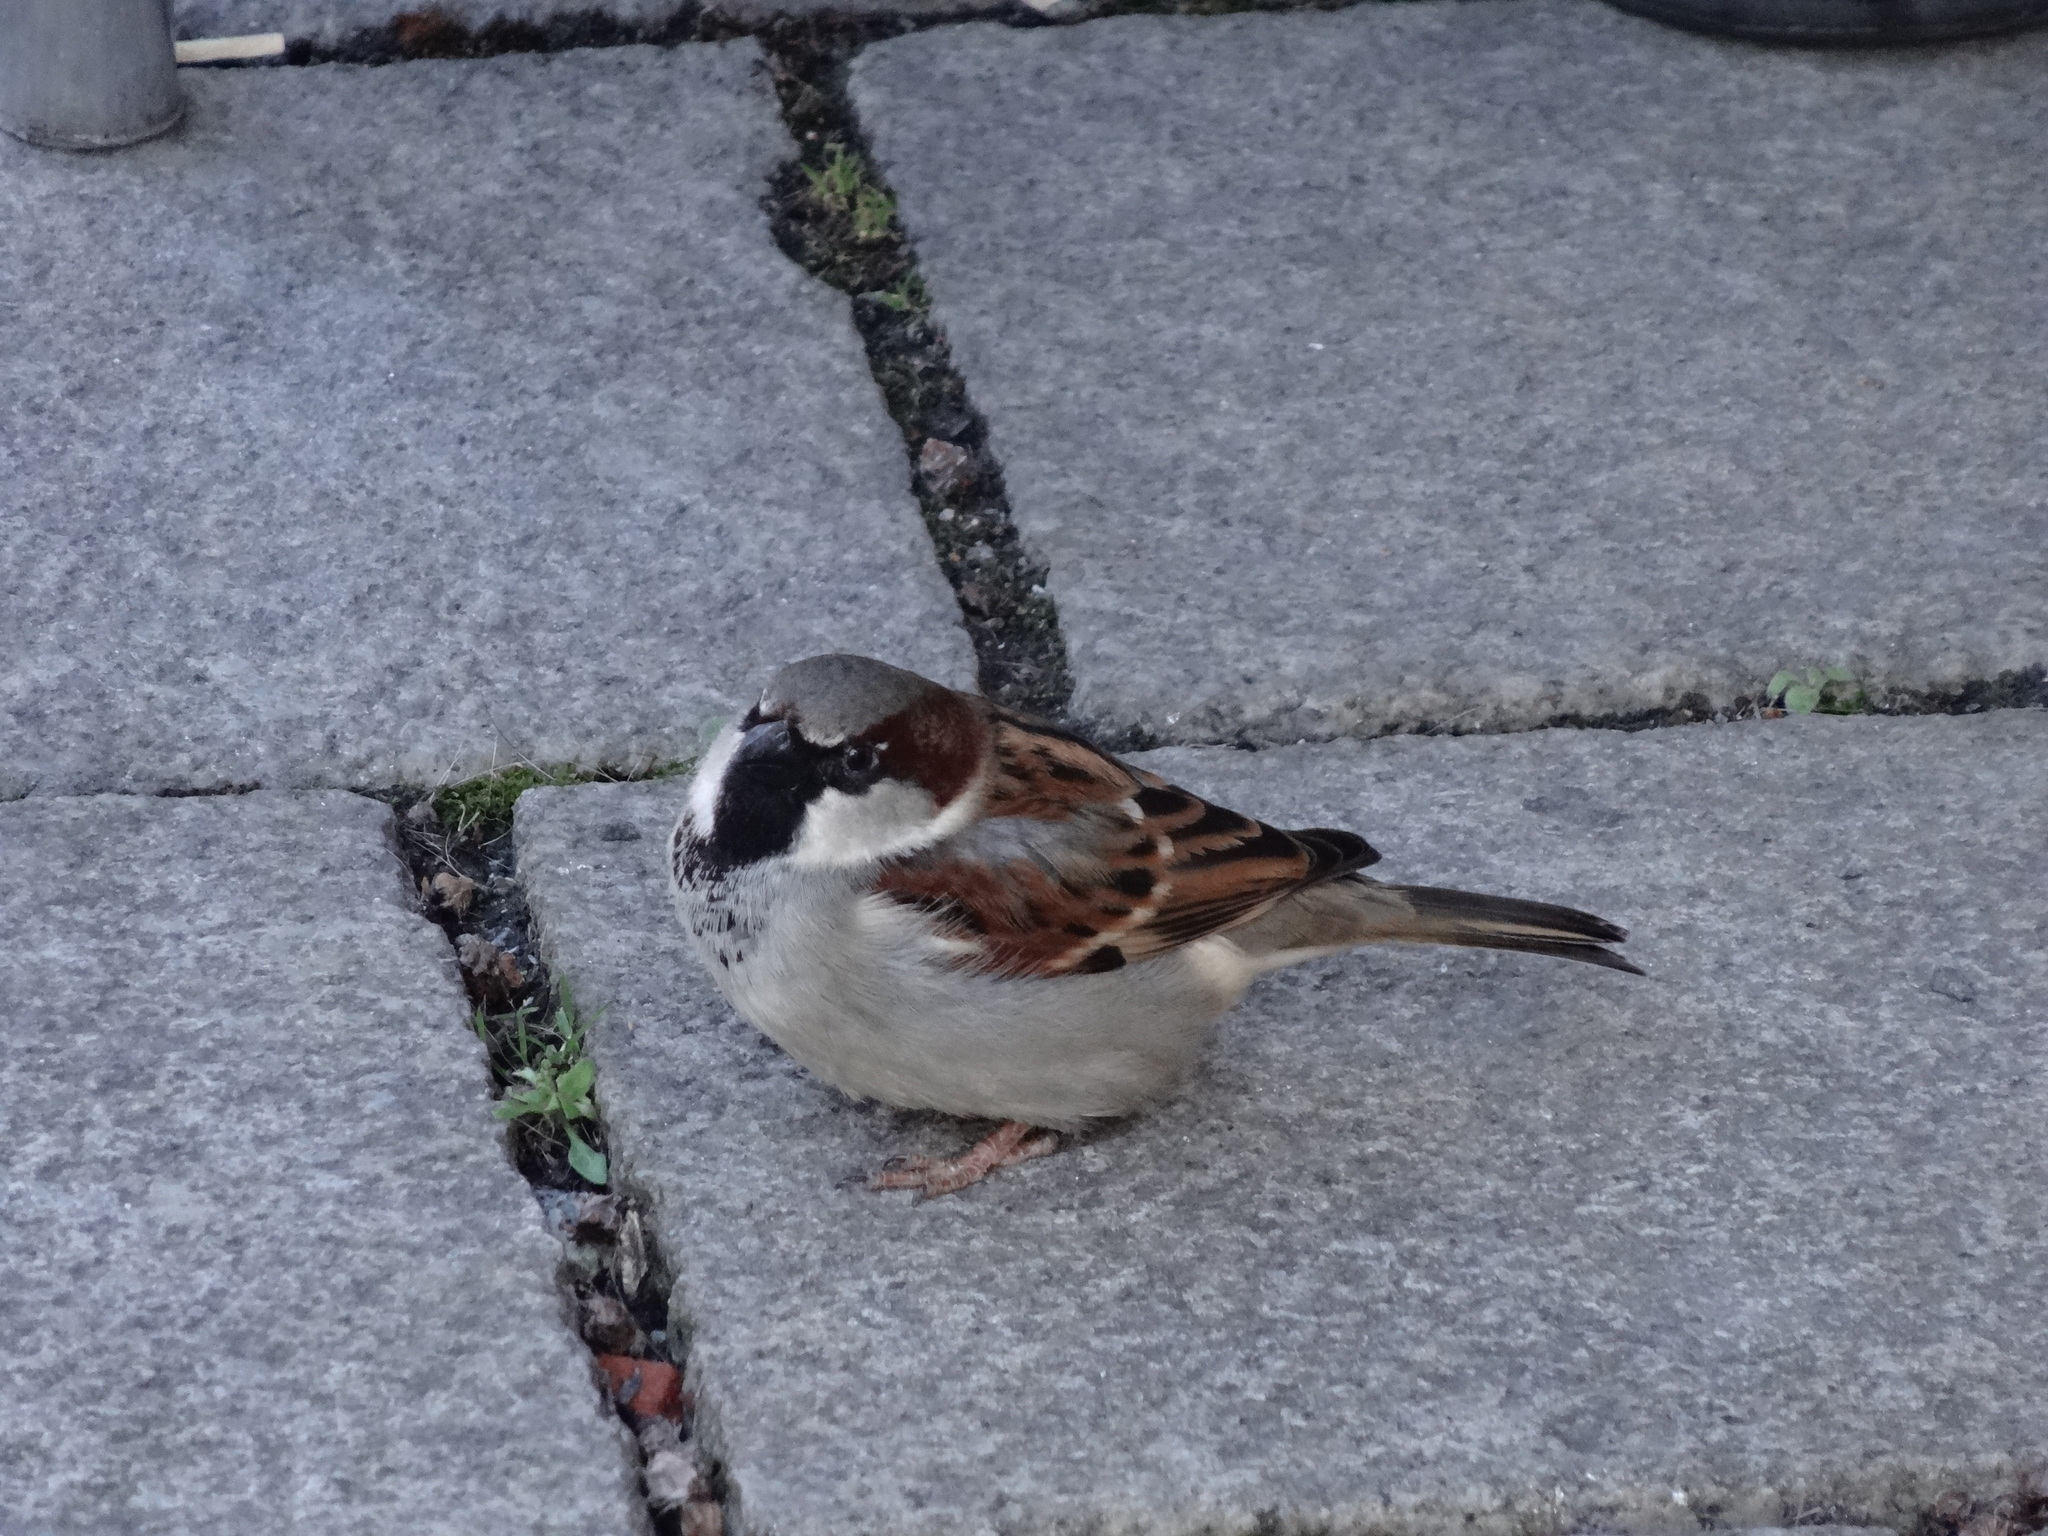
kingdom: Animalia
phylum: Chordata
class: Aves
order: Passeriformes
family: Passeridae
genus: Passer
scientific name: Passer domesticus
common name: House sparrow
